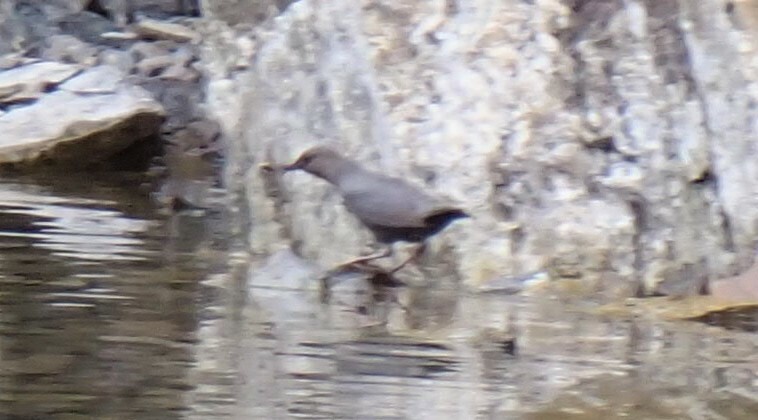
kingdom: Animalia
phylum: Chordata
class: Aves
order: Passeriformes
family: Cinclidae
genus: Cinclus
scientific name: Cinclus mexicanus
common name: American dipper
